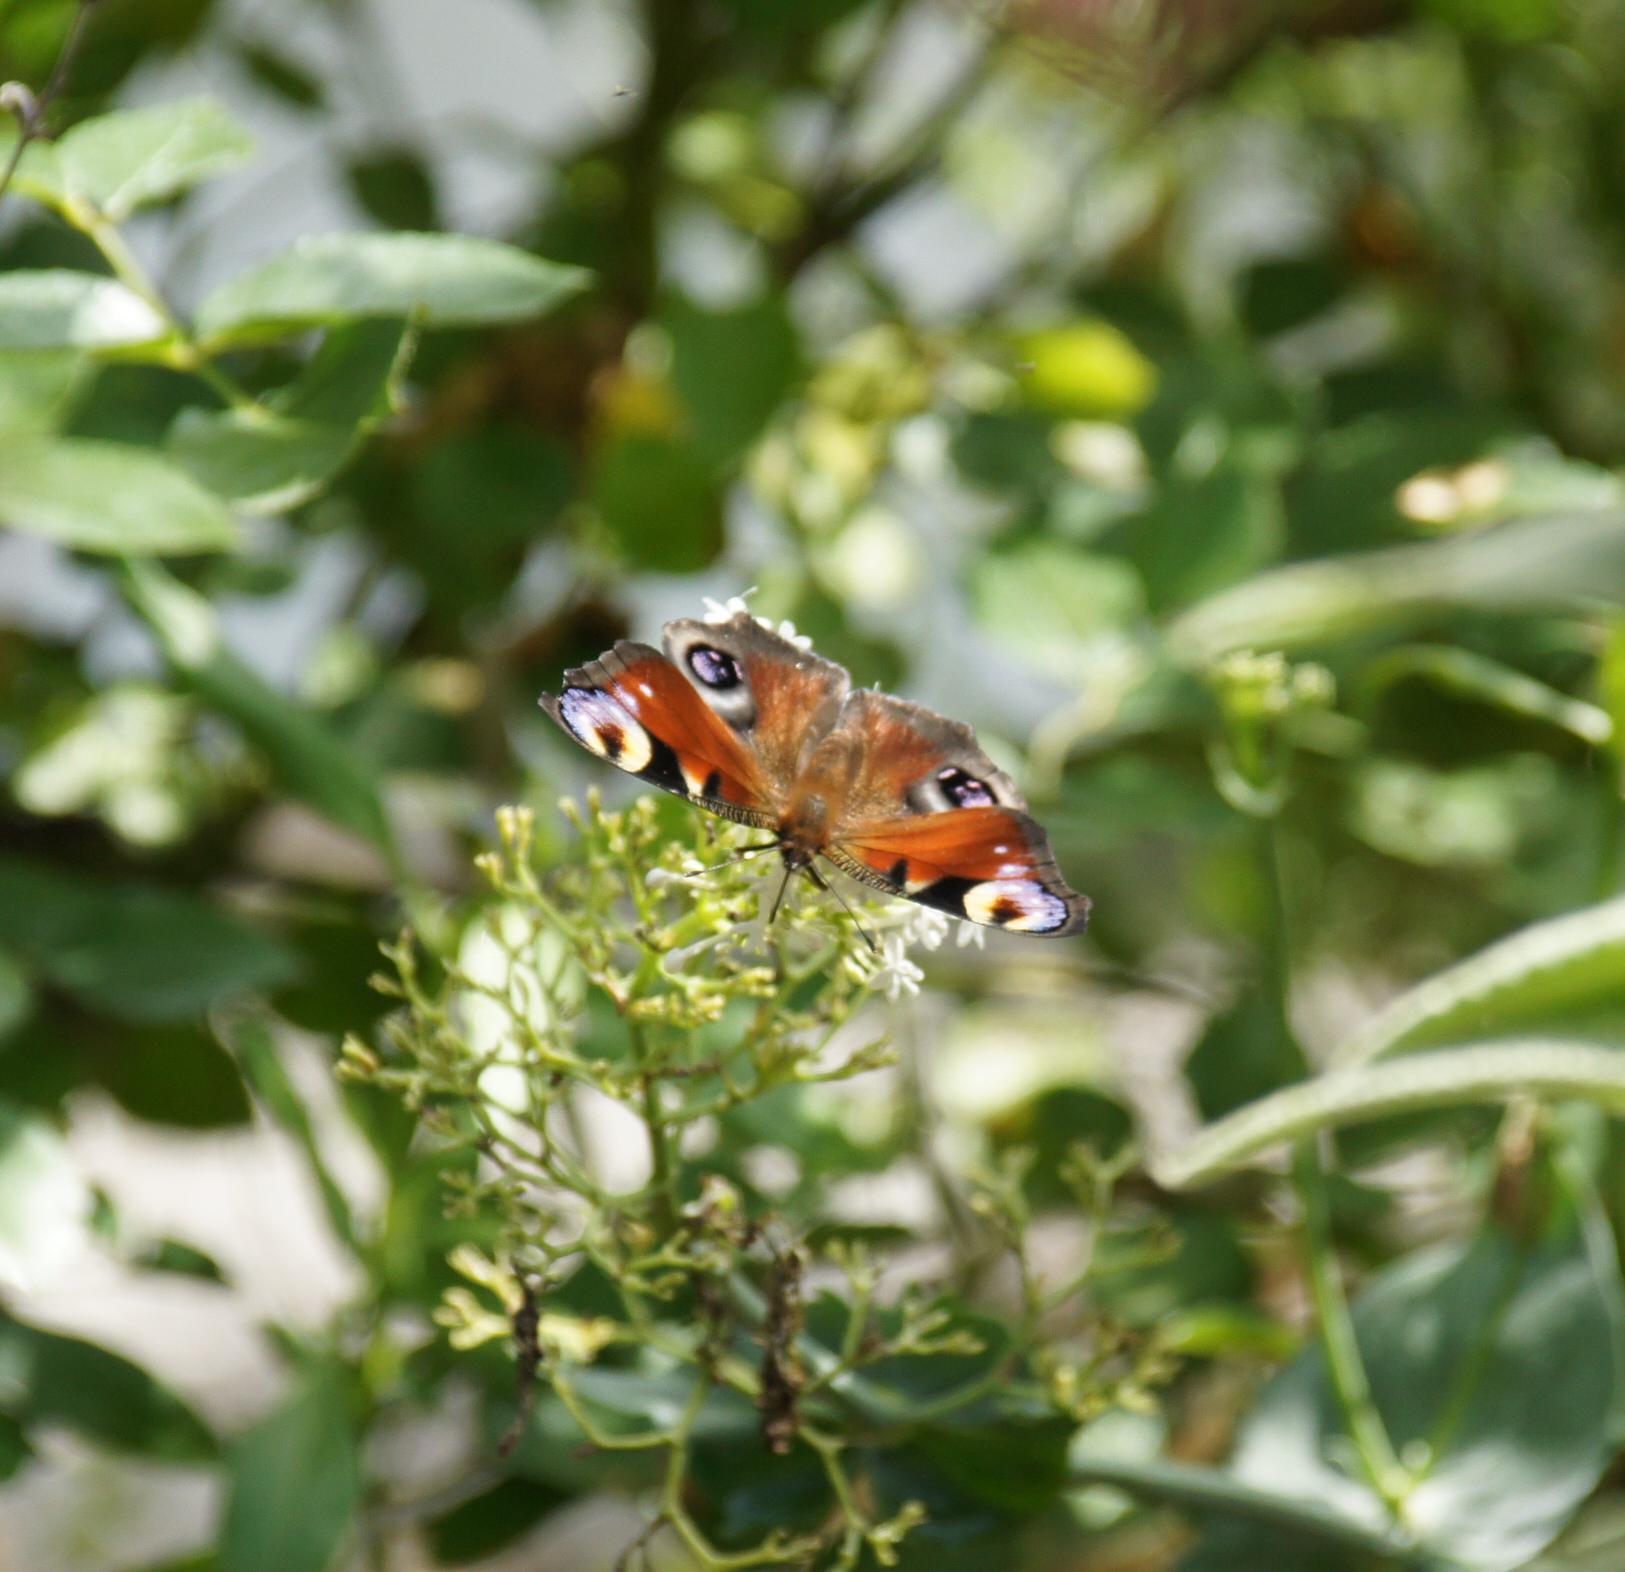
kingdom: Animalia
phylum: Arthropoda
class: Insecta
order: Lepidoptera
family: Nymphalidae
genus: Aglais
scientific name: Aglais io
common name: Peacock
